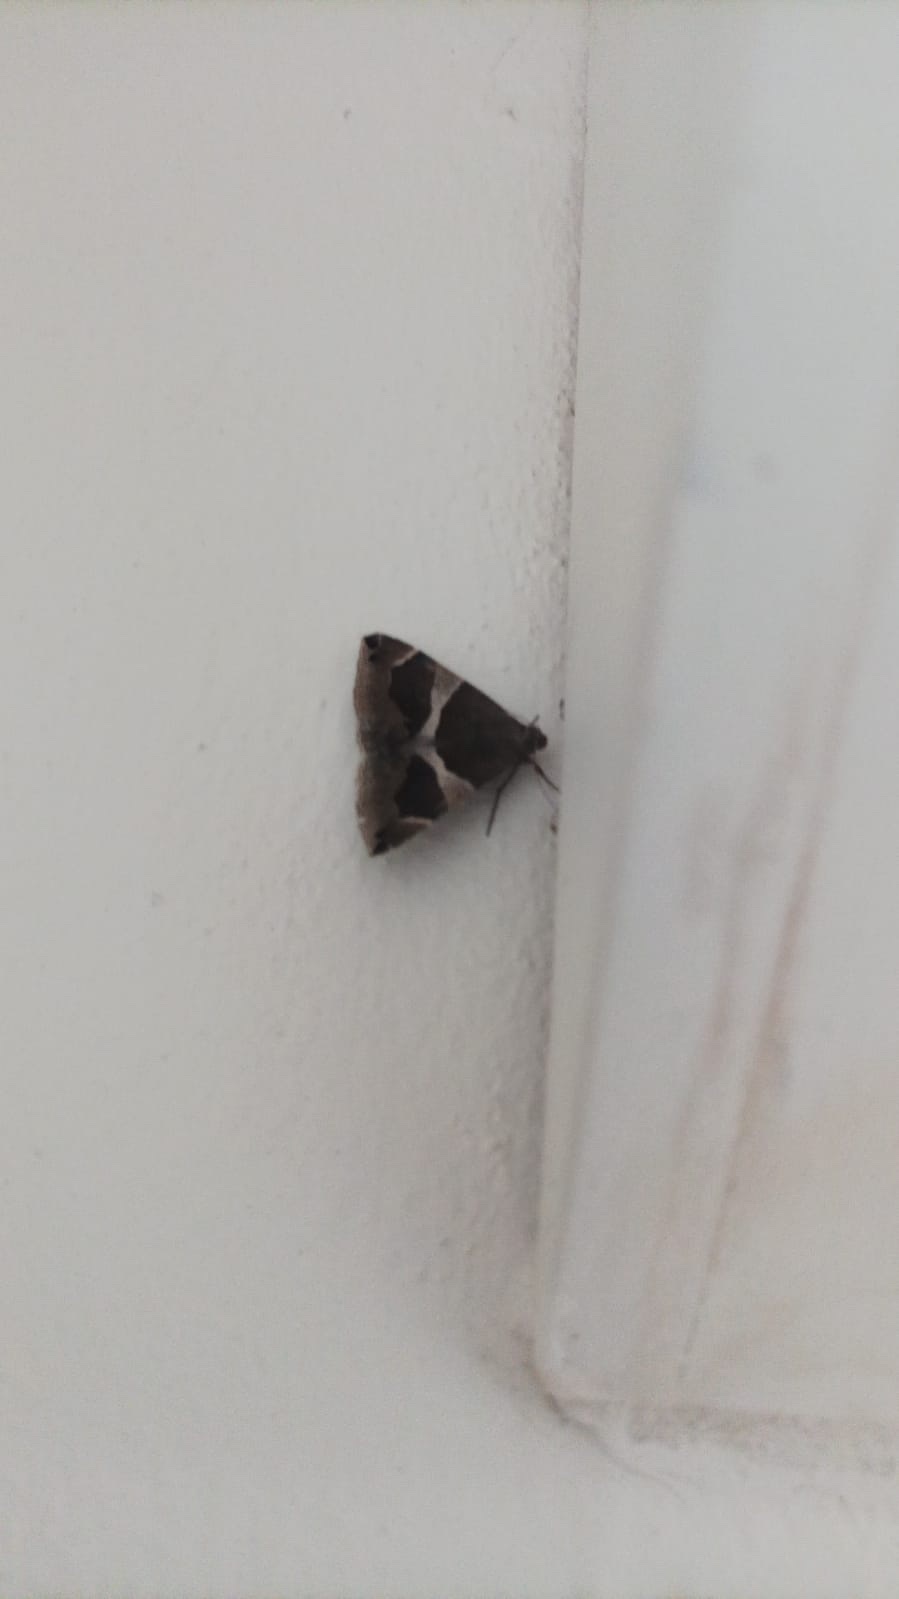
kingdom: Animalia
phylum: Arthropoda
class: Insecta
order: Lepidoptera
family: Erebidae
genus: Dysgonia
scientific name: Dysgonia algira
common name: Passenger
